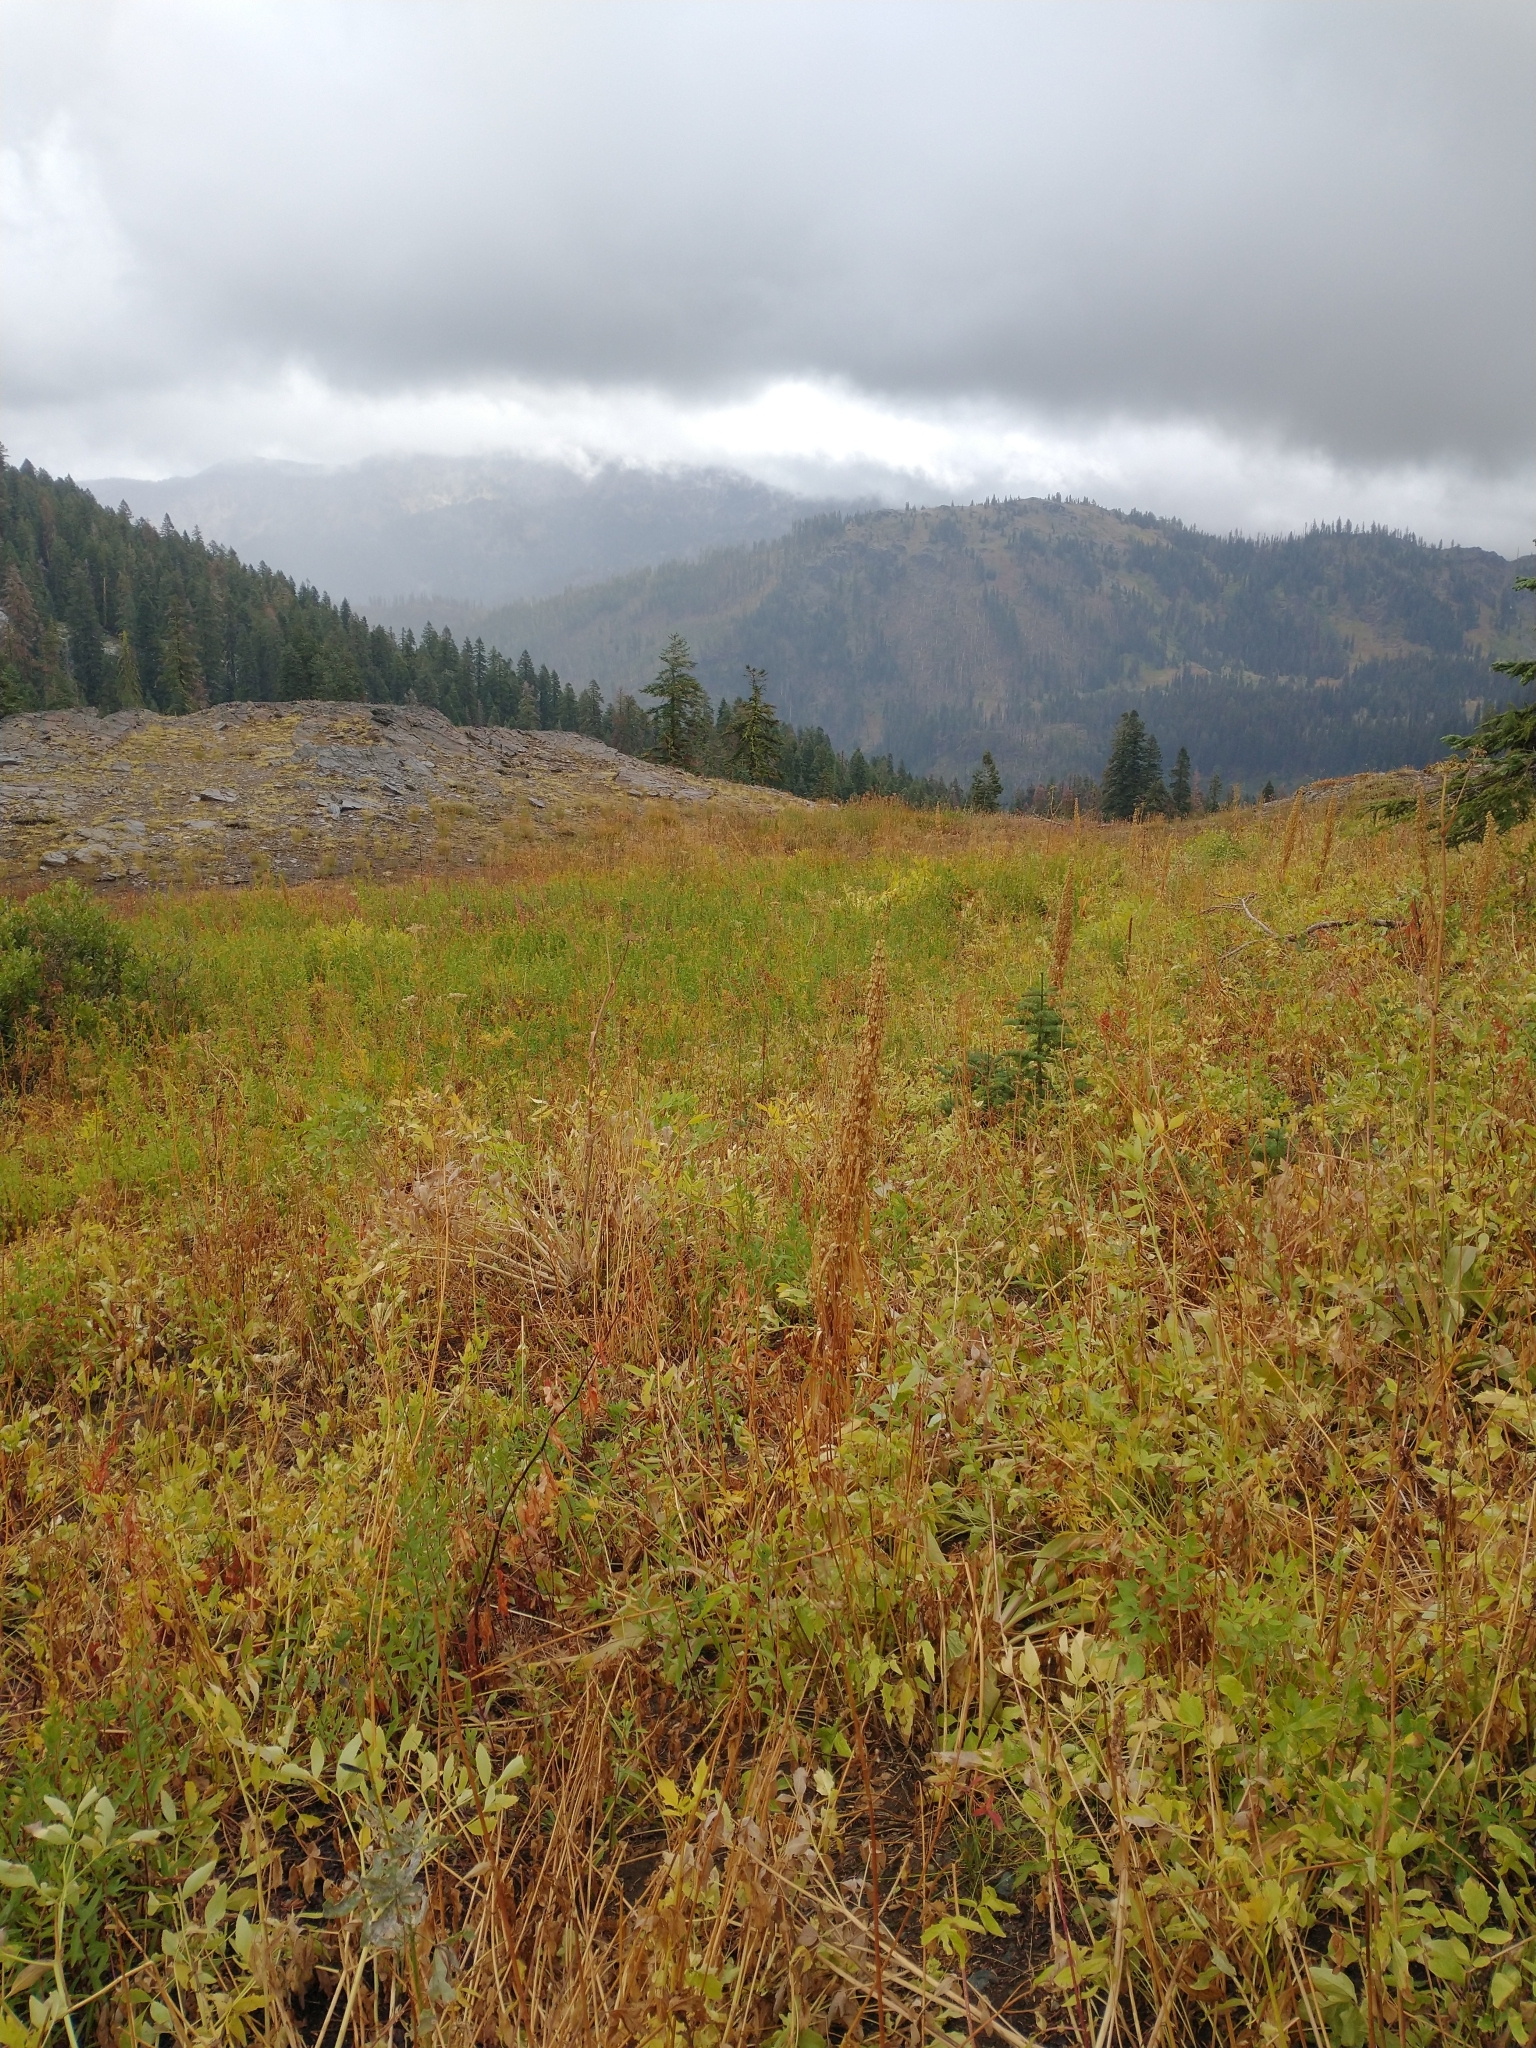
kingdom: Plantae
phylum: Tracheophyta
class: Magnoliopsida
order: Gentianales
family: Gentianaceae
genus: Frasera
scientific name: Frasera speciosa
